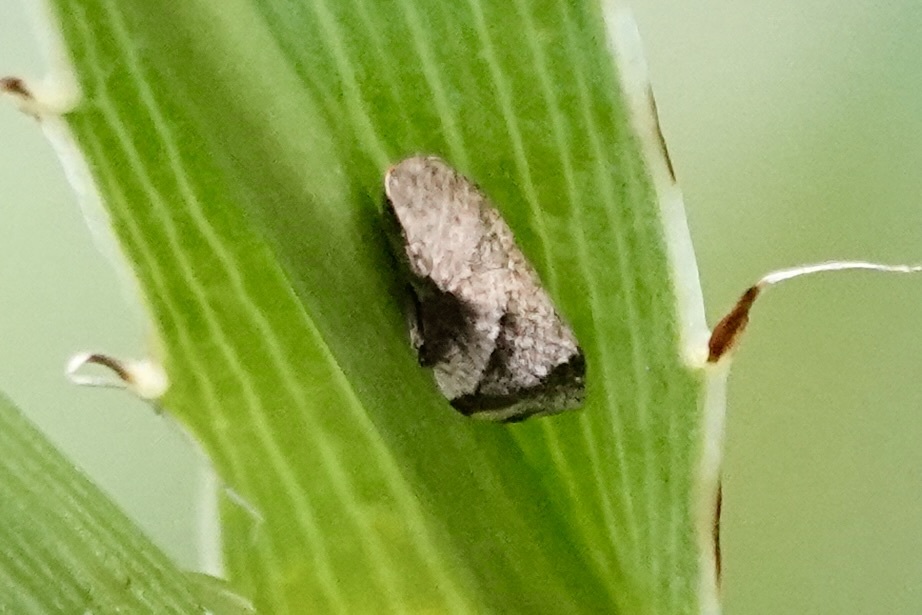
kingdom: Animalia
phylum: Arthropoda
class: Insecta
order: Hemiptera
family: Aphrophoridae
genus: Lepyronia
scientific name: Lepyronia quadrangularis
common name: Diamond-backed spittlebug
